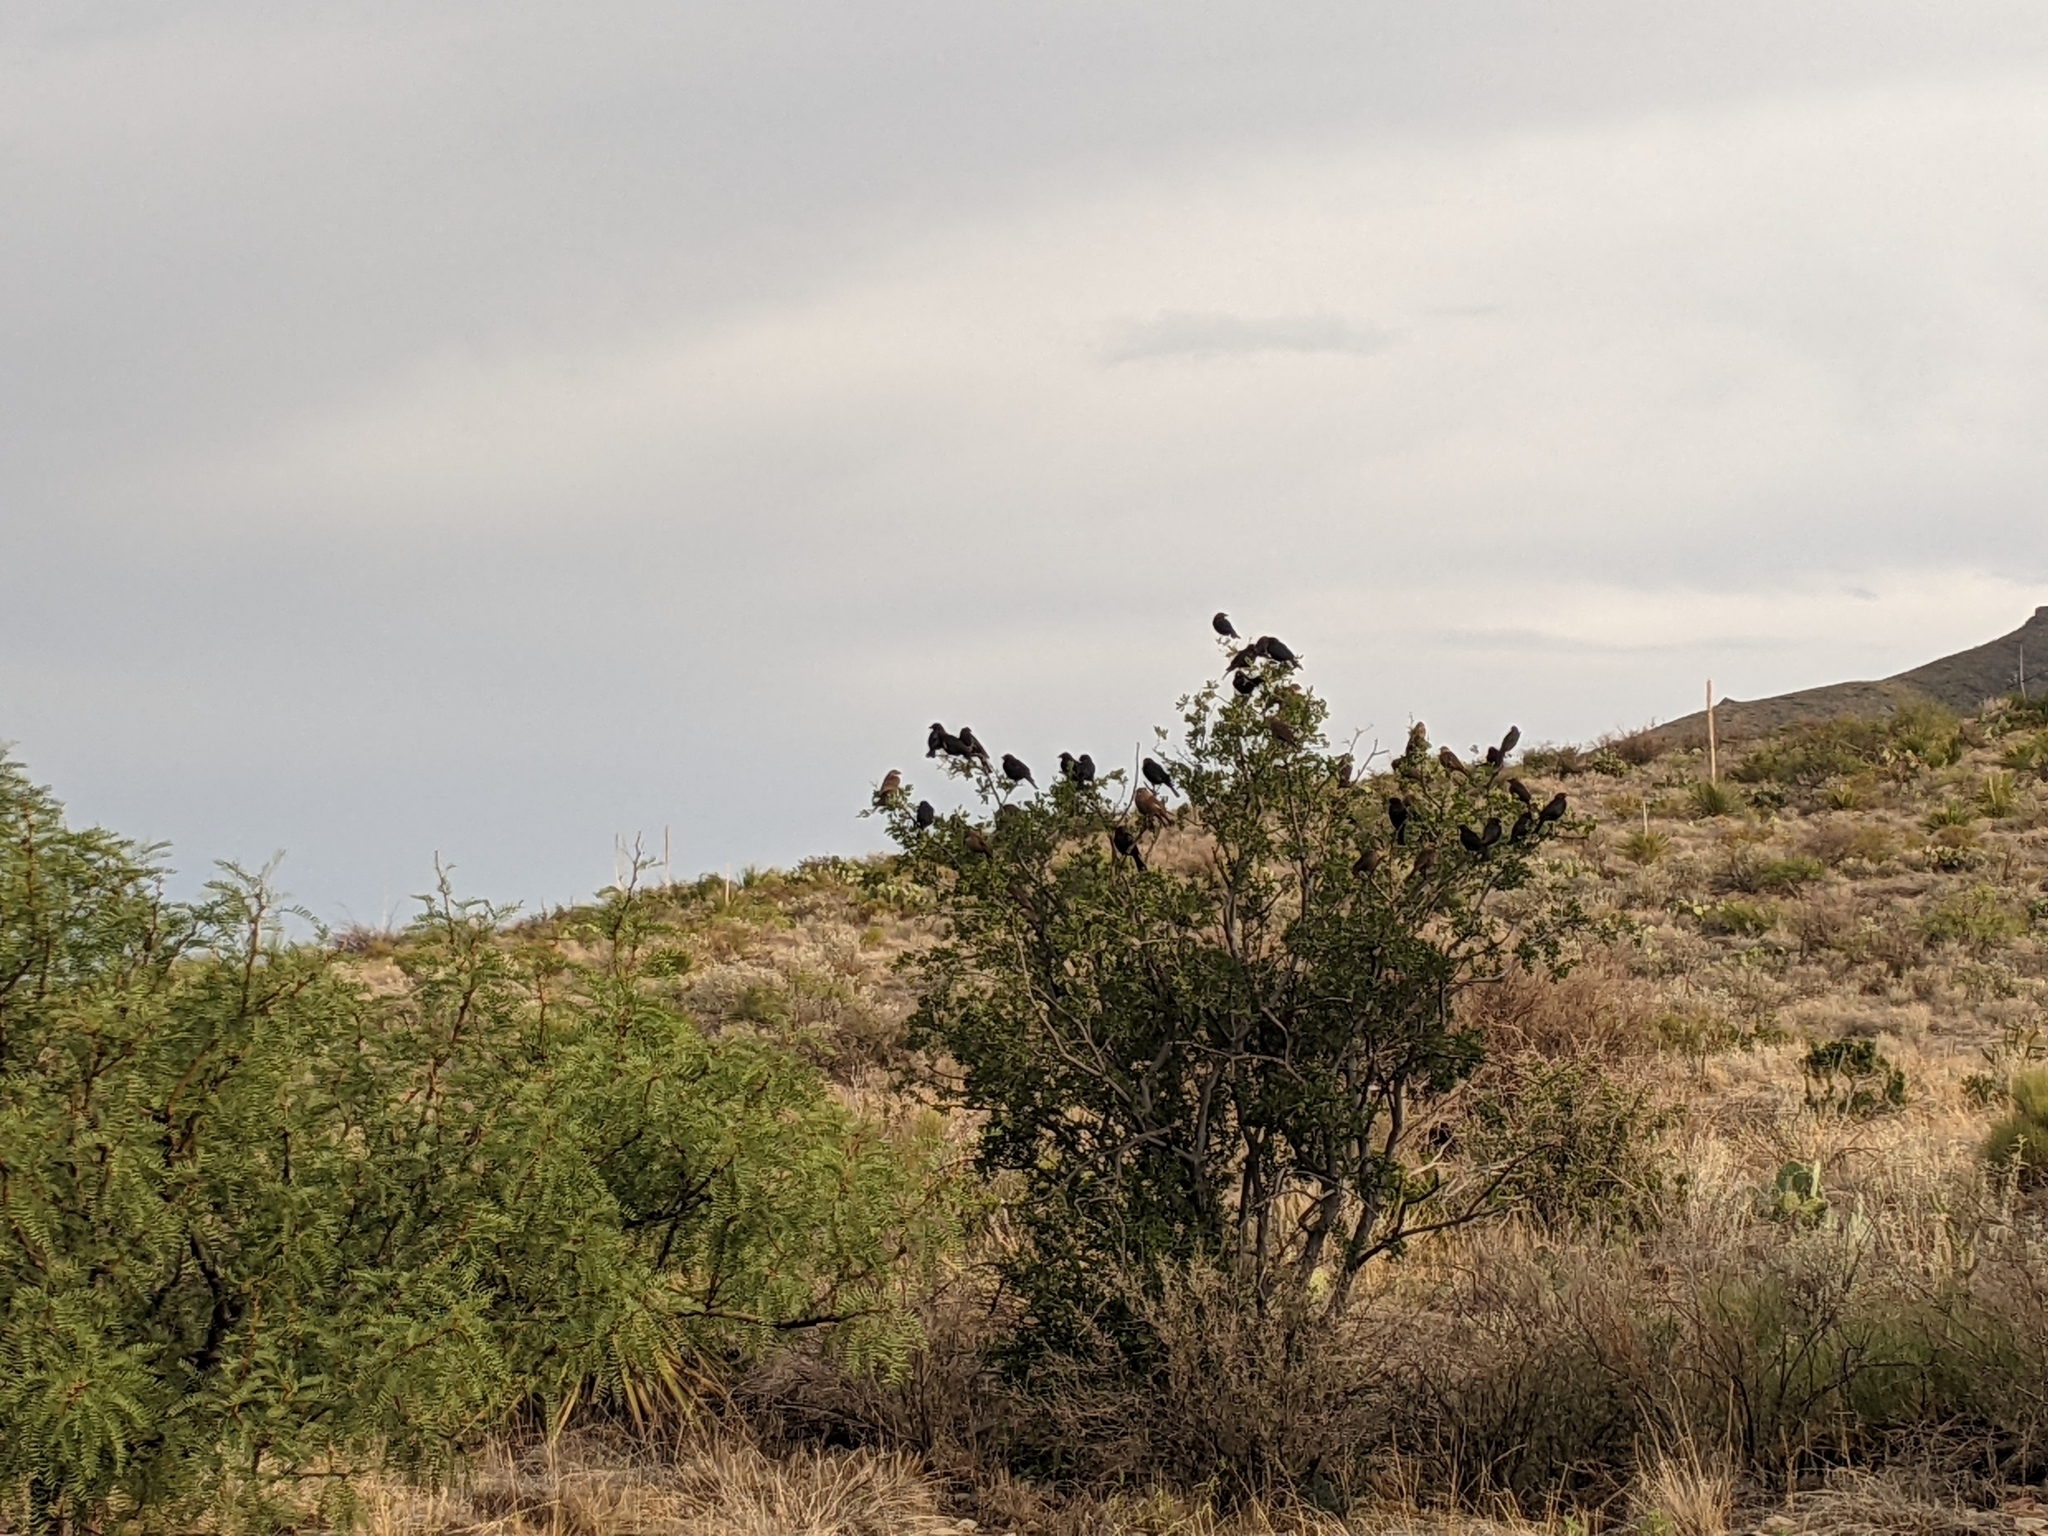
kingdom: Animalia
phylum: Chordata
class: Aves
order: Passeriformes
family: Icteridae
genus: Molothrus
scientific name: Molothrus ater
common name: Brown-headed cowbird
